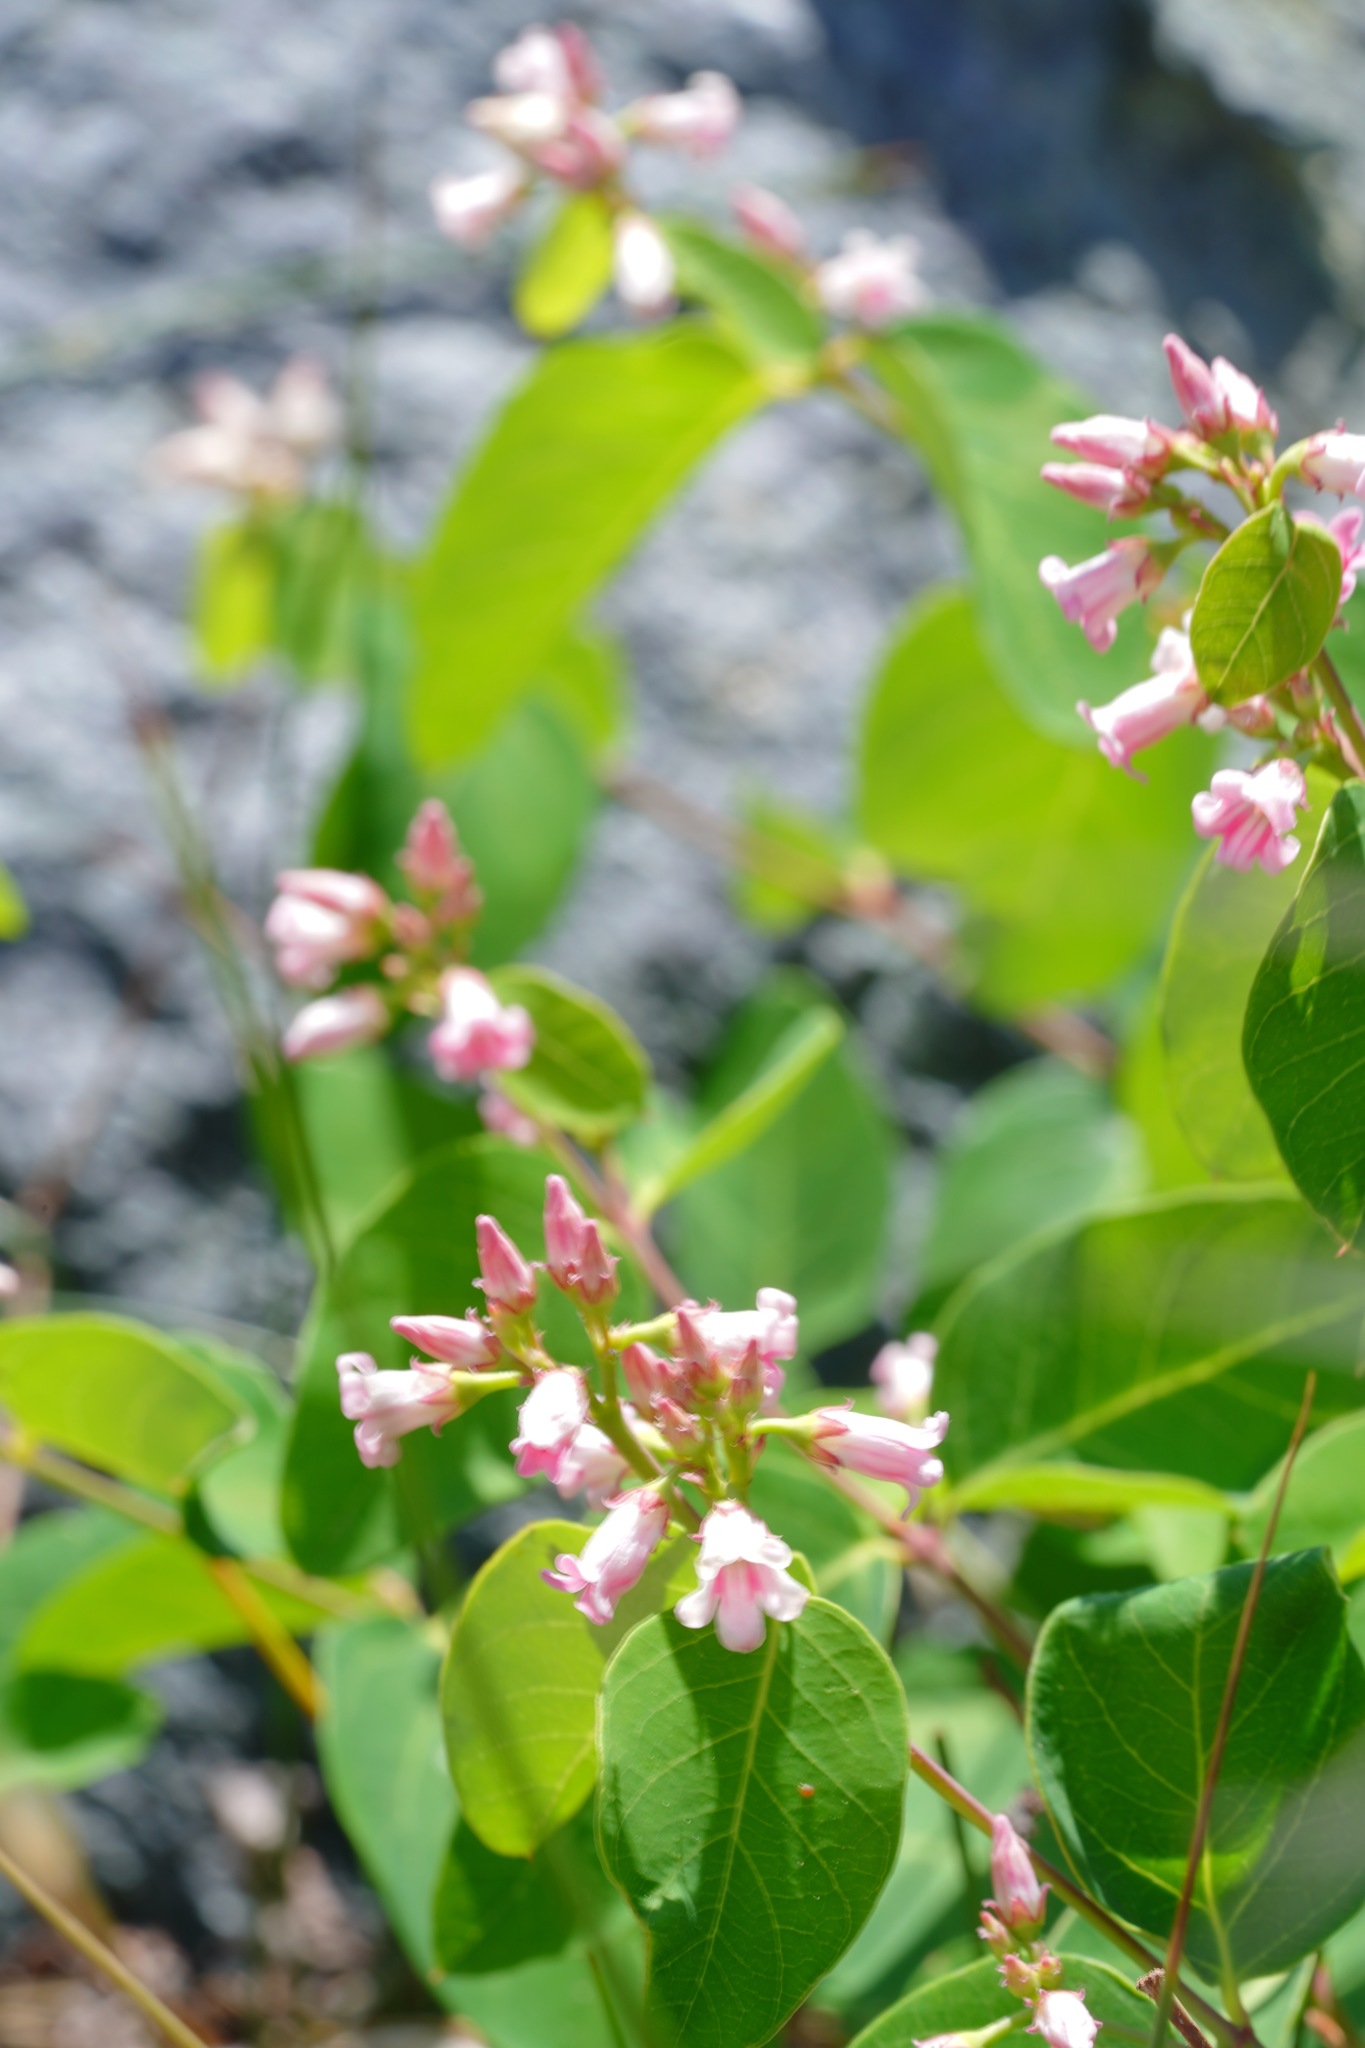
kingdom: Plantae
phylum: Tracheophyta
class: Magnoliopsida
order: Gentianales
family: Apocynaceae
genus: Apocynum
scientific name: Apocynum androsaemifolium
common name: Spreading dogbane
